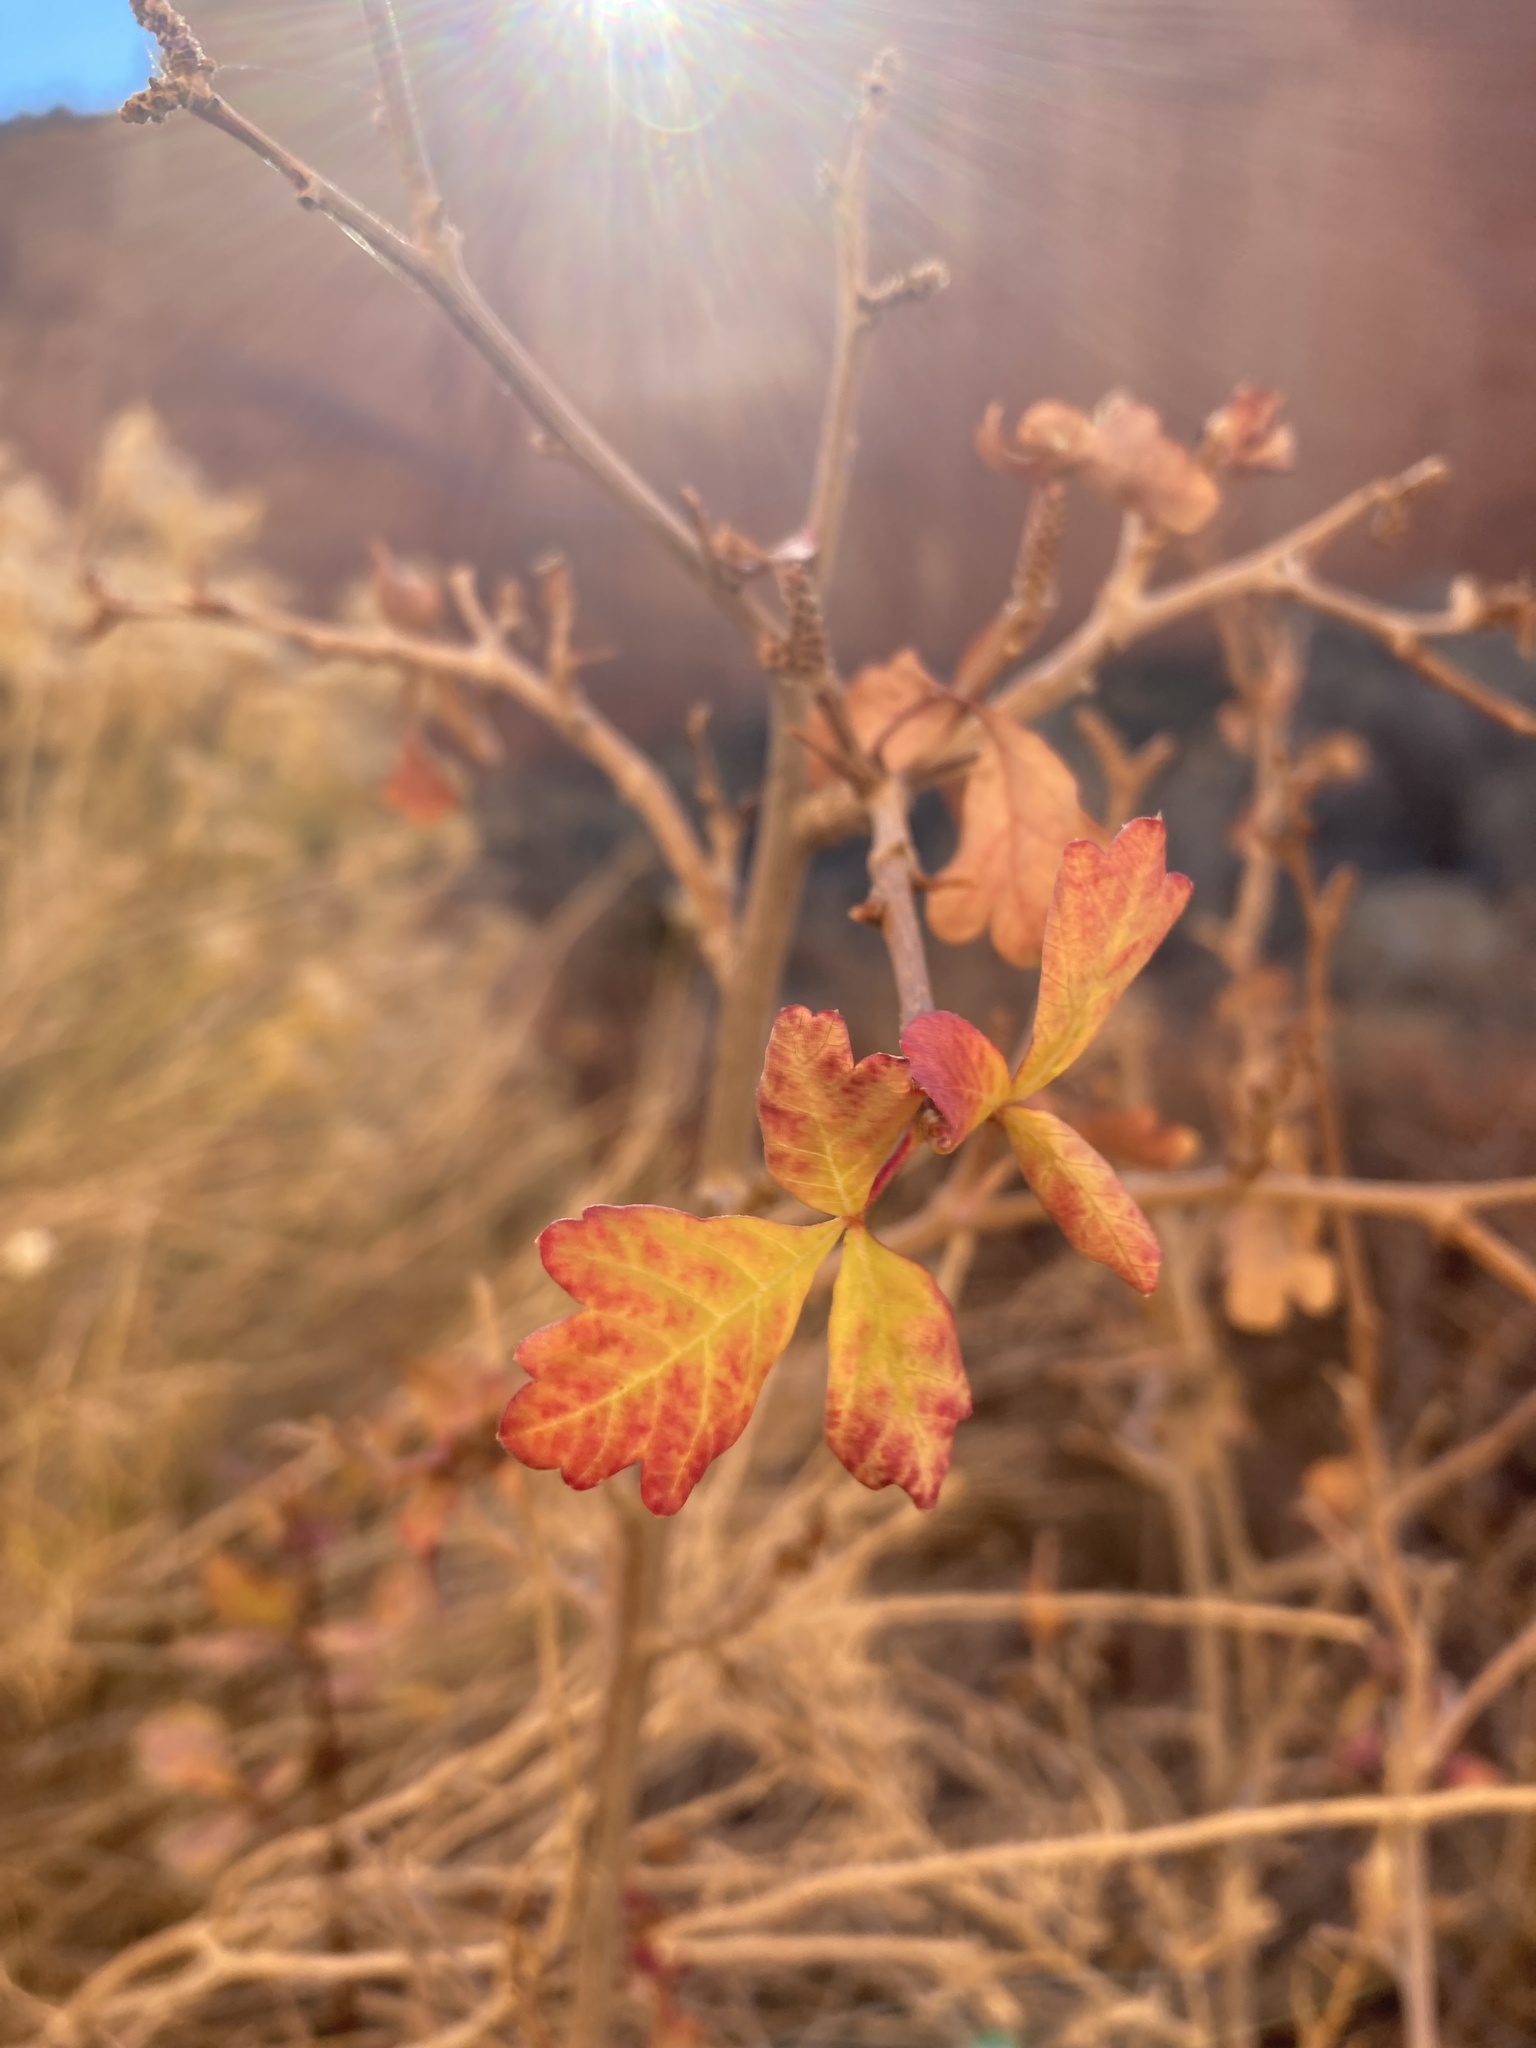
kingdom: Plantae
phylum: Tracheophyta
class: Magnoliopsida
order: Sapindales
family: Anacardiaceae
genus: Rhus
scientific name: Rhus trilobata
